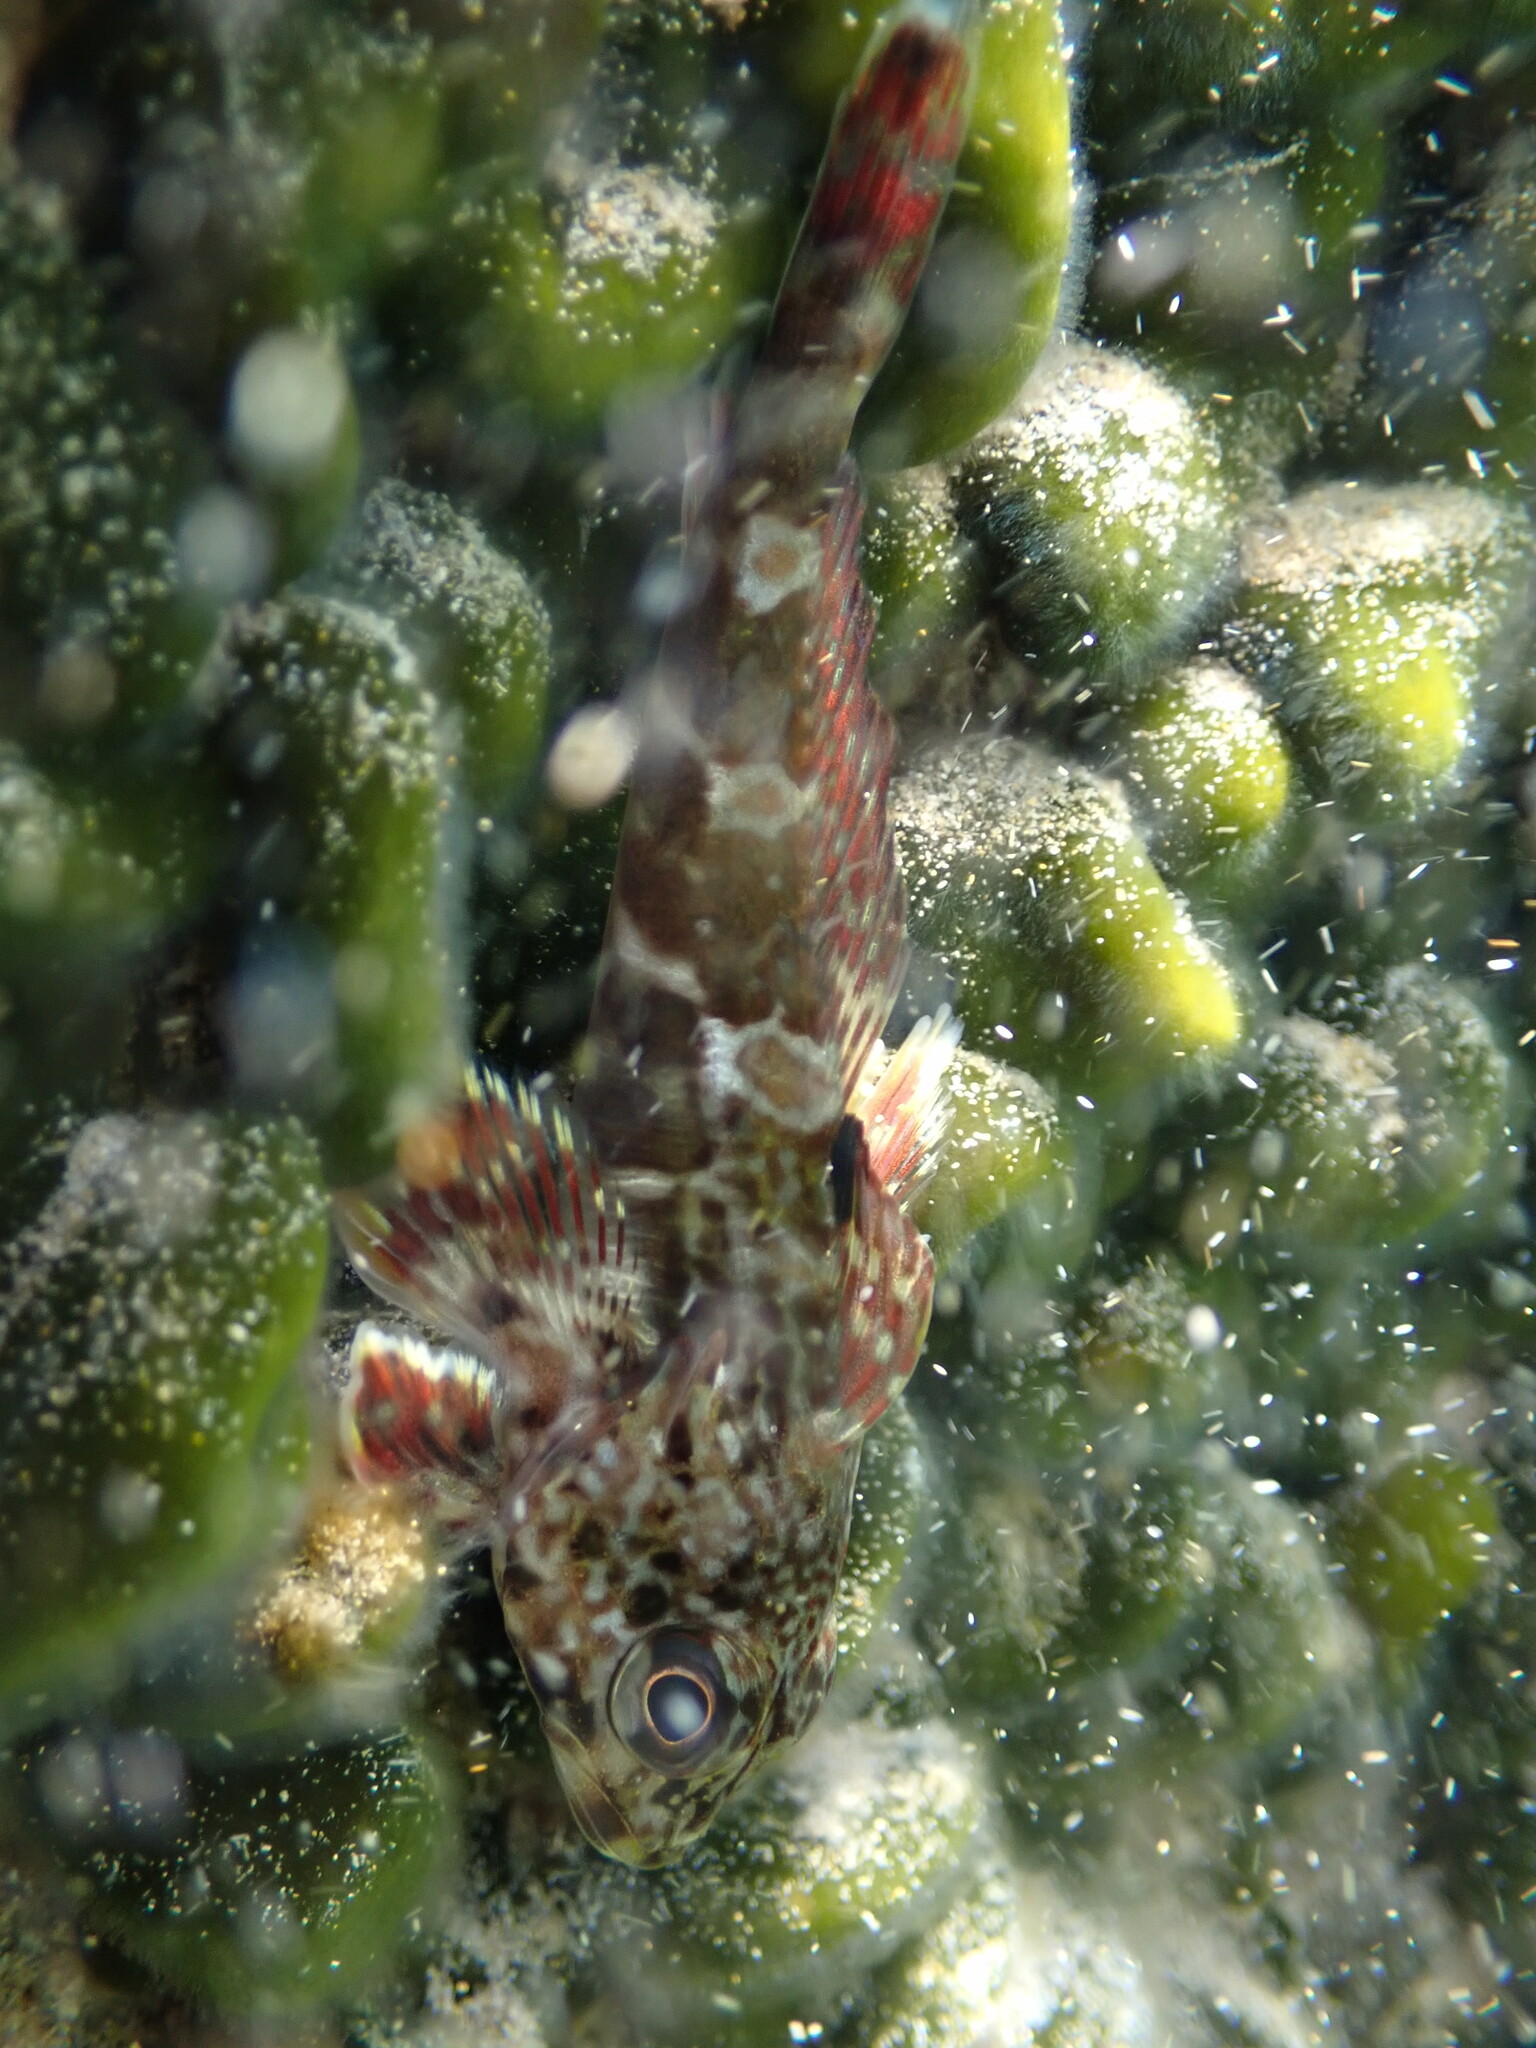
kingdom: Animalia
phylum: Chordata
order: Perciformes
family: Bovichtidae
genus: Bovichtus
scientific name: Bovichtus angustifrons
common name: Dragonet
